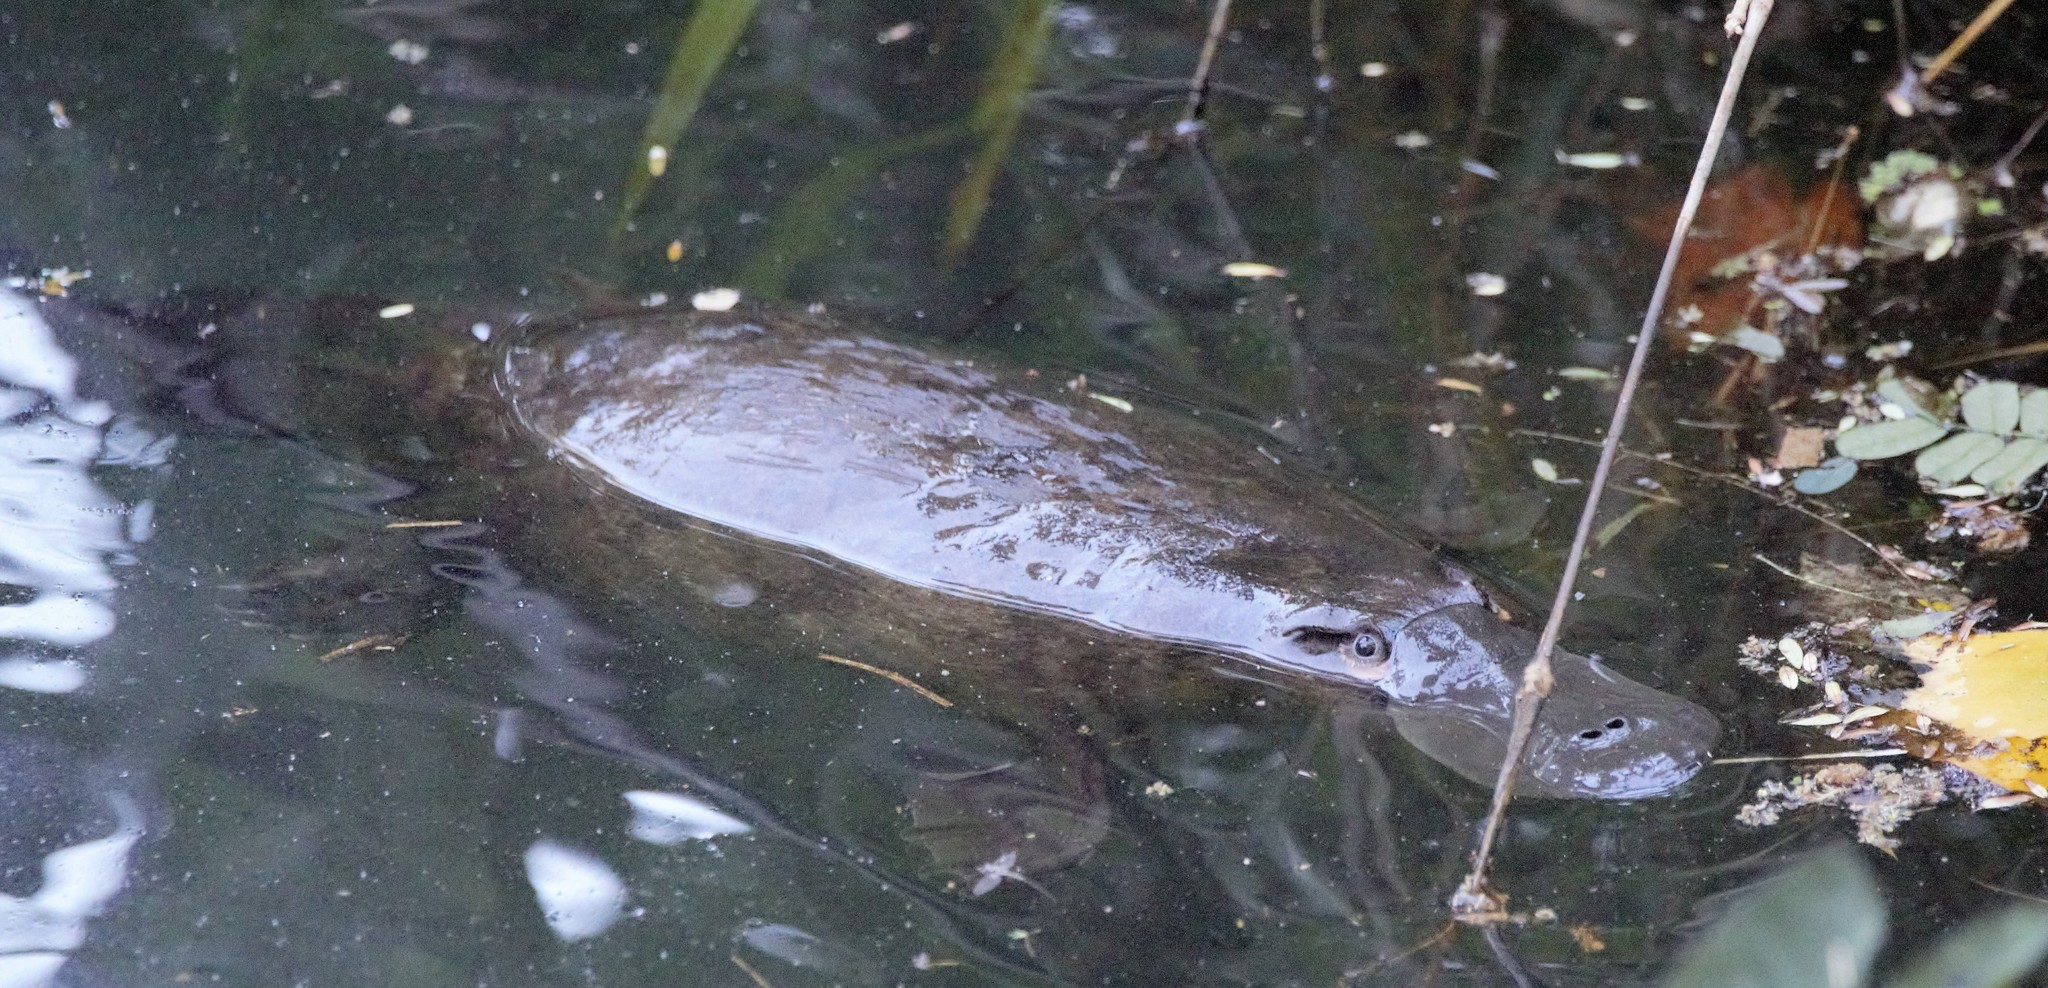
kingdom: Animalia
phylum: Chordata
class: Mammalia
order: Monotremata
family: Ornithorhynchidae
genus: Ornithorhynchus
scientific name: Ornithorhynchus anatinus
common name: Platypus
